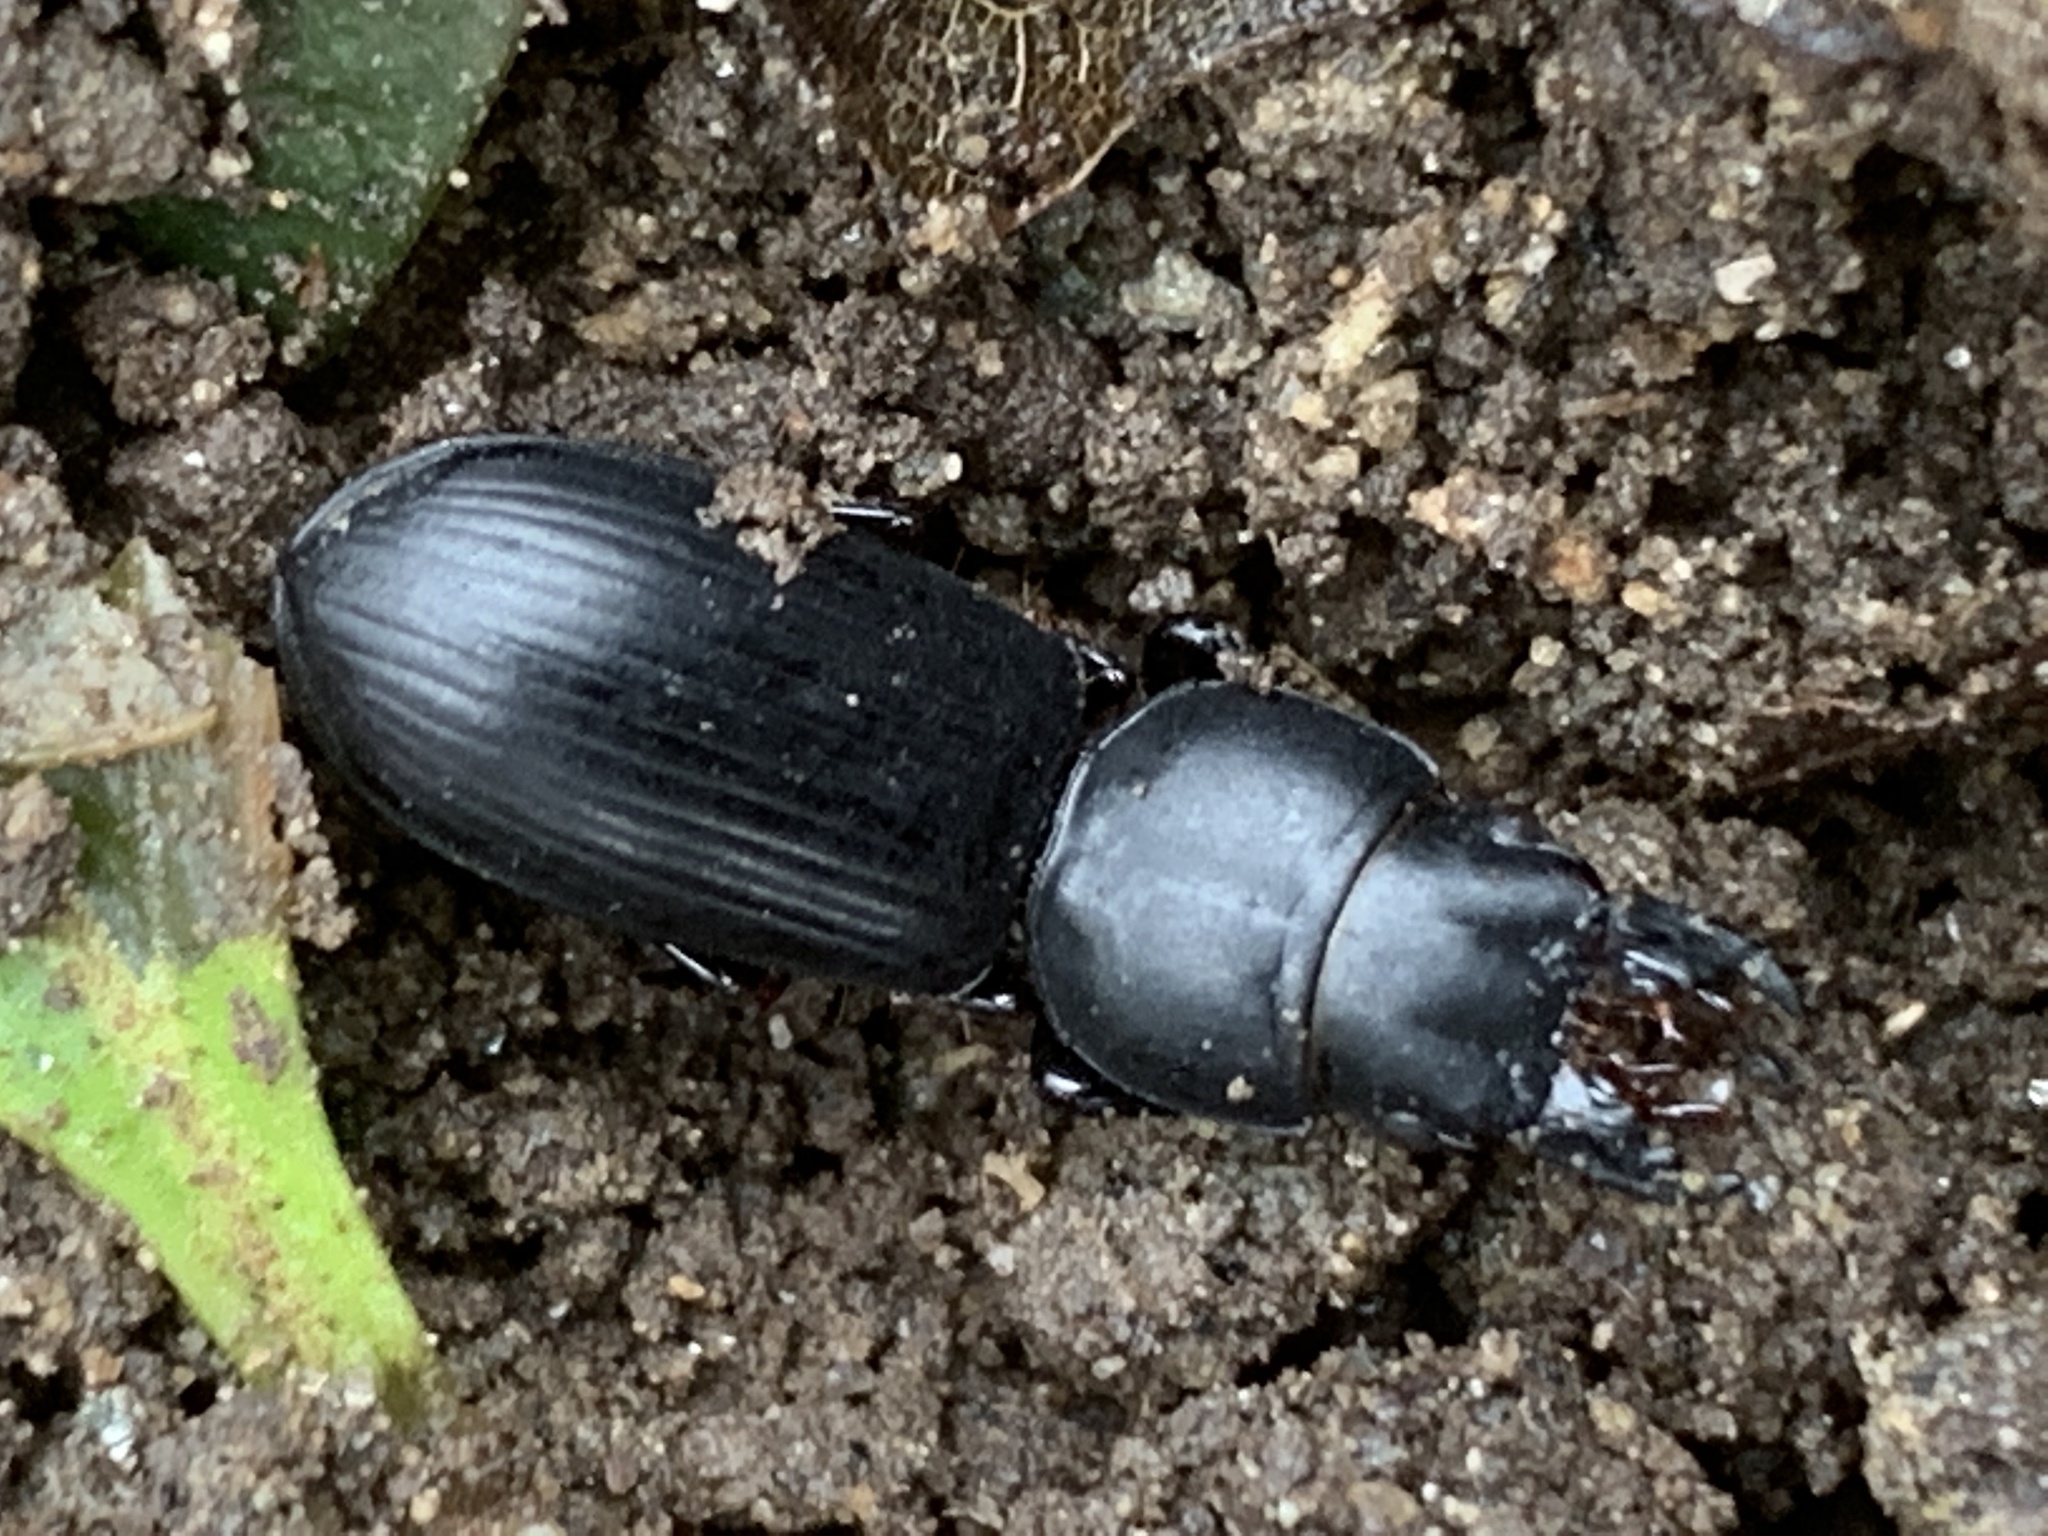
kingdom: Animalia
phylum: Arthropoda
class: Insecta
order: Coleoptera
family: Carabidae
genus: Scarites
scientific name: Scarites subterraneus
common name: Big-headed ground beetle
